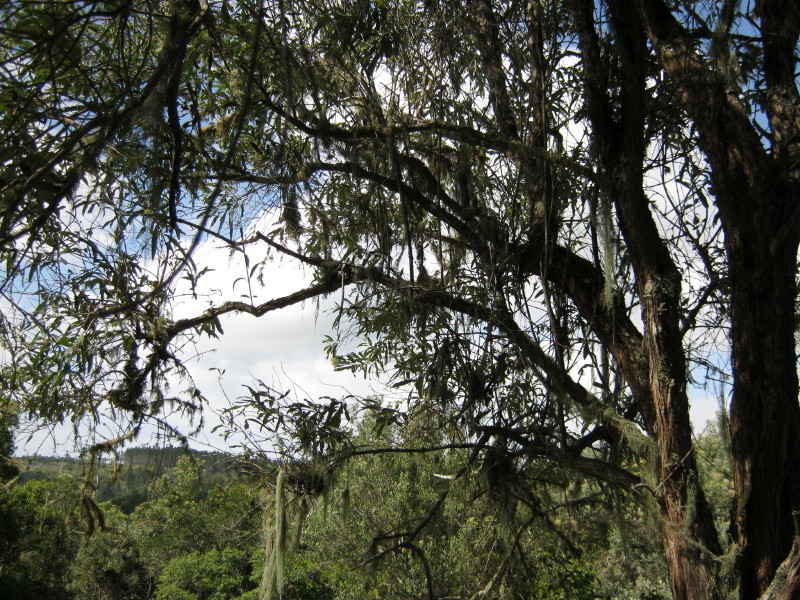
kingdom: Plantae
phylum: Tracheophyta
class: Magnoliopsida
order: Lamiales
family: Scrophulariaceae
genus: Buddleja
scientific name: Buddleja saligna
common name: False olive
